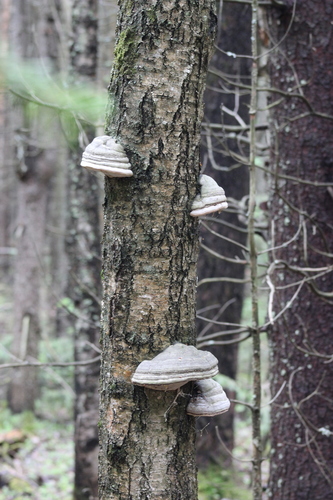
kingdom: Fungi
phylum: Basidiomycota
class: Agaricomycetes
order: Polyporales
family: Polyporaceae
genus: Fomes
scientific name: Fomes fomentarius
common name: Hoof fungus
